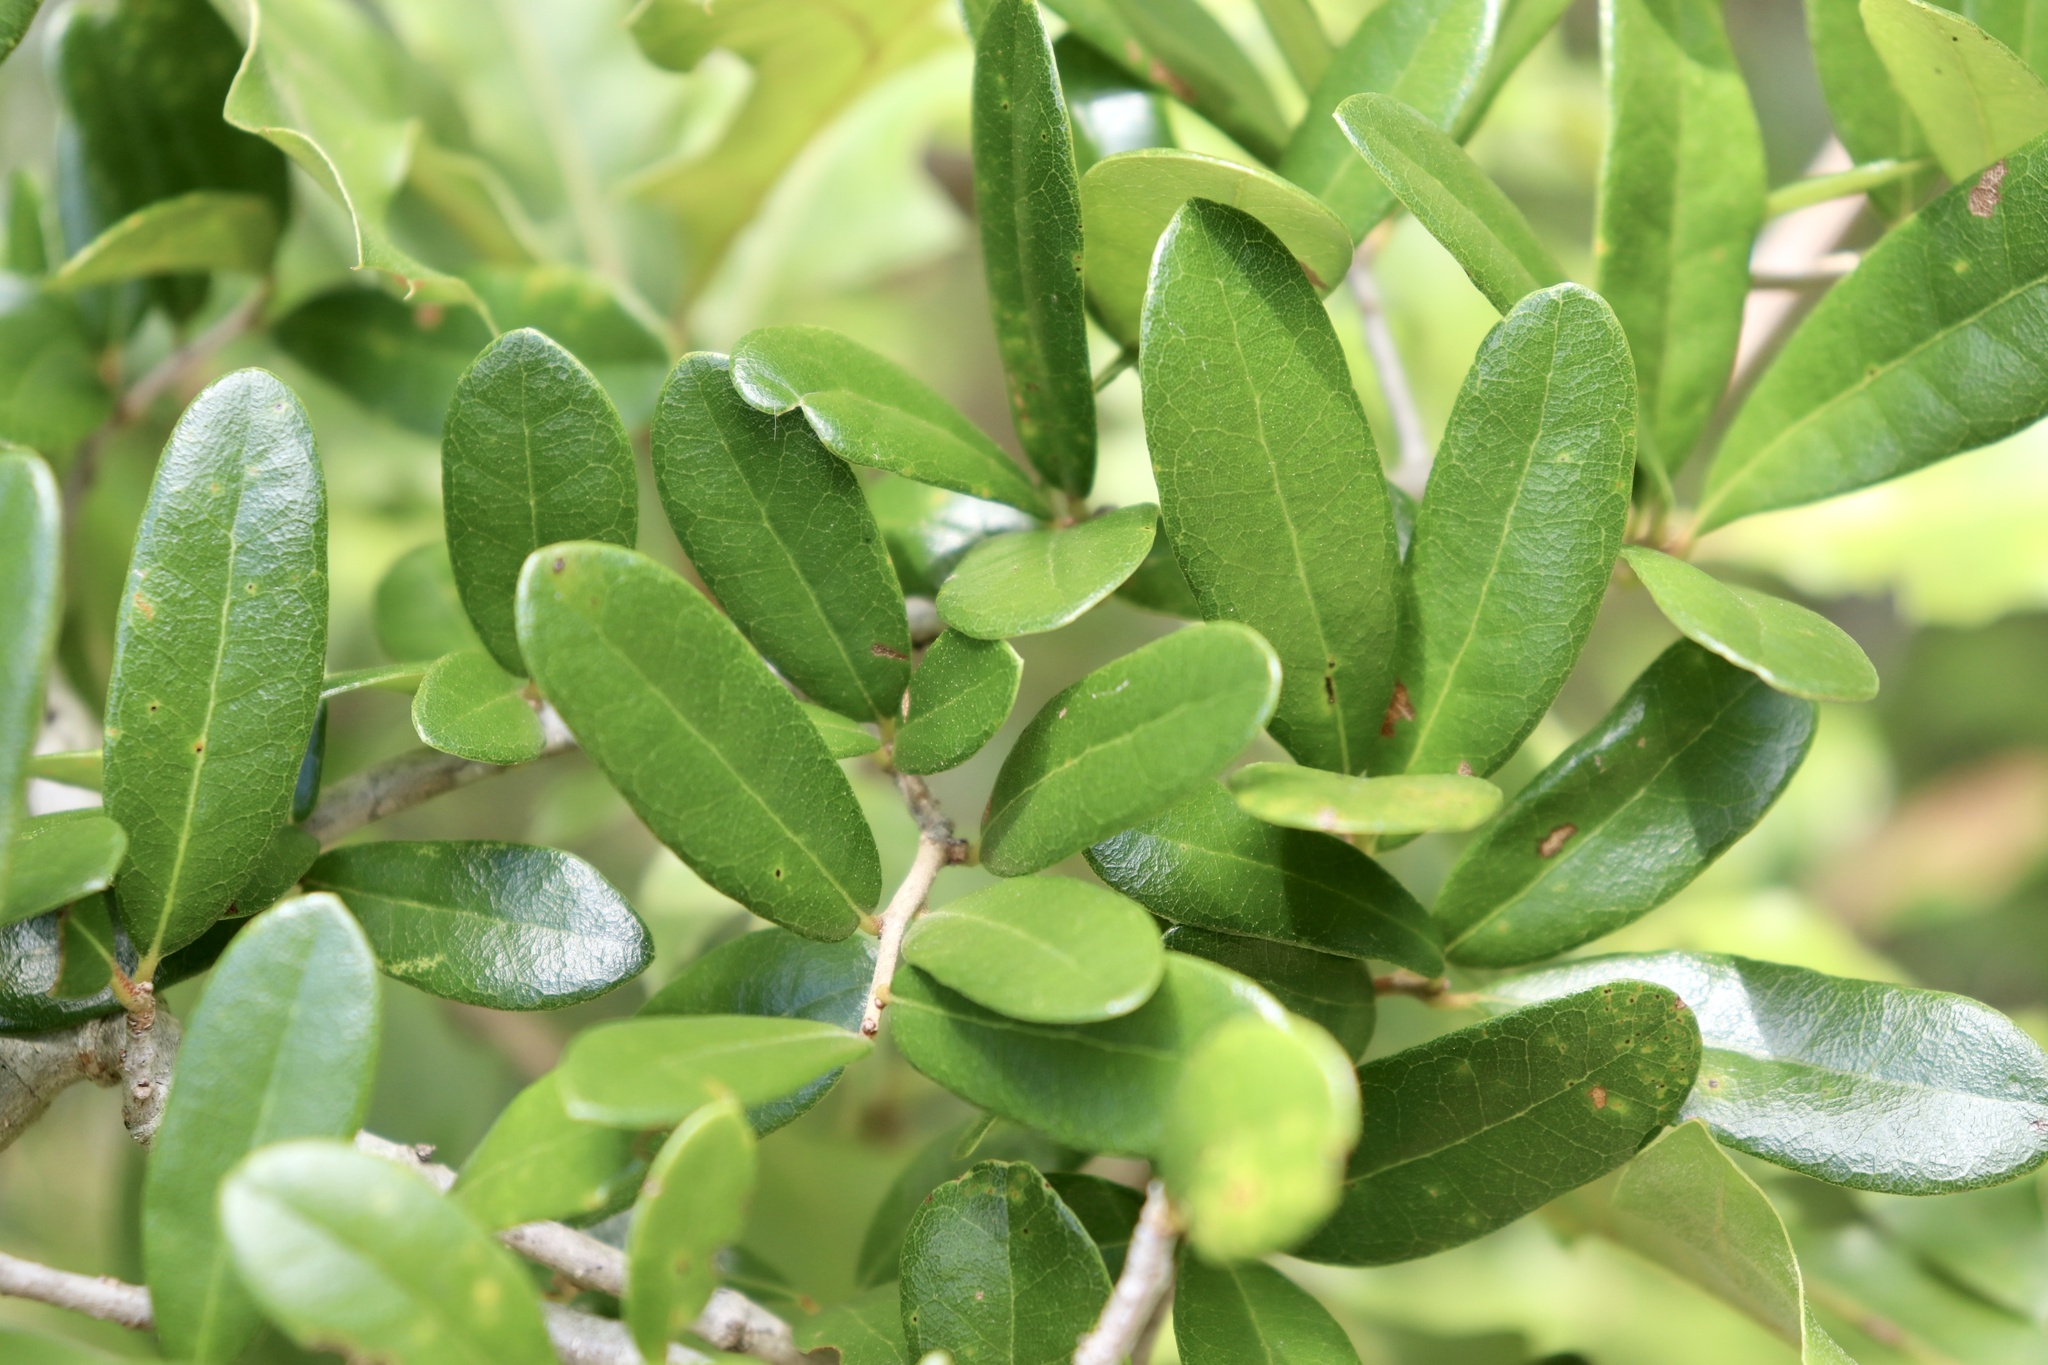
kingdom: Plantae
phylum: Tracheophyta
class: Magnoliopsida
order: Fagales
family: Fagaceae
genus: Quercus
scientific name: Quercus virginiana
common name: Southern live oak
